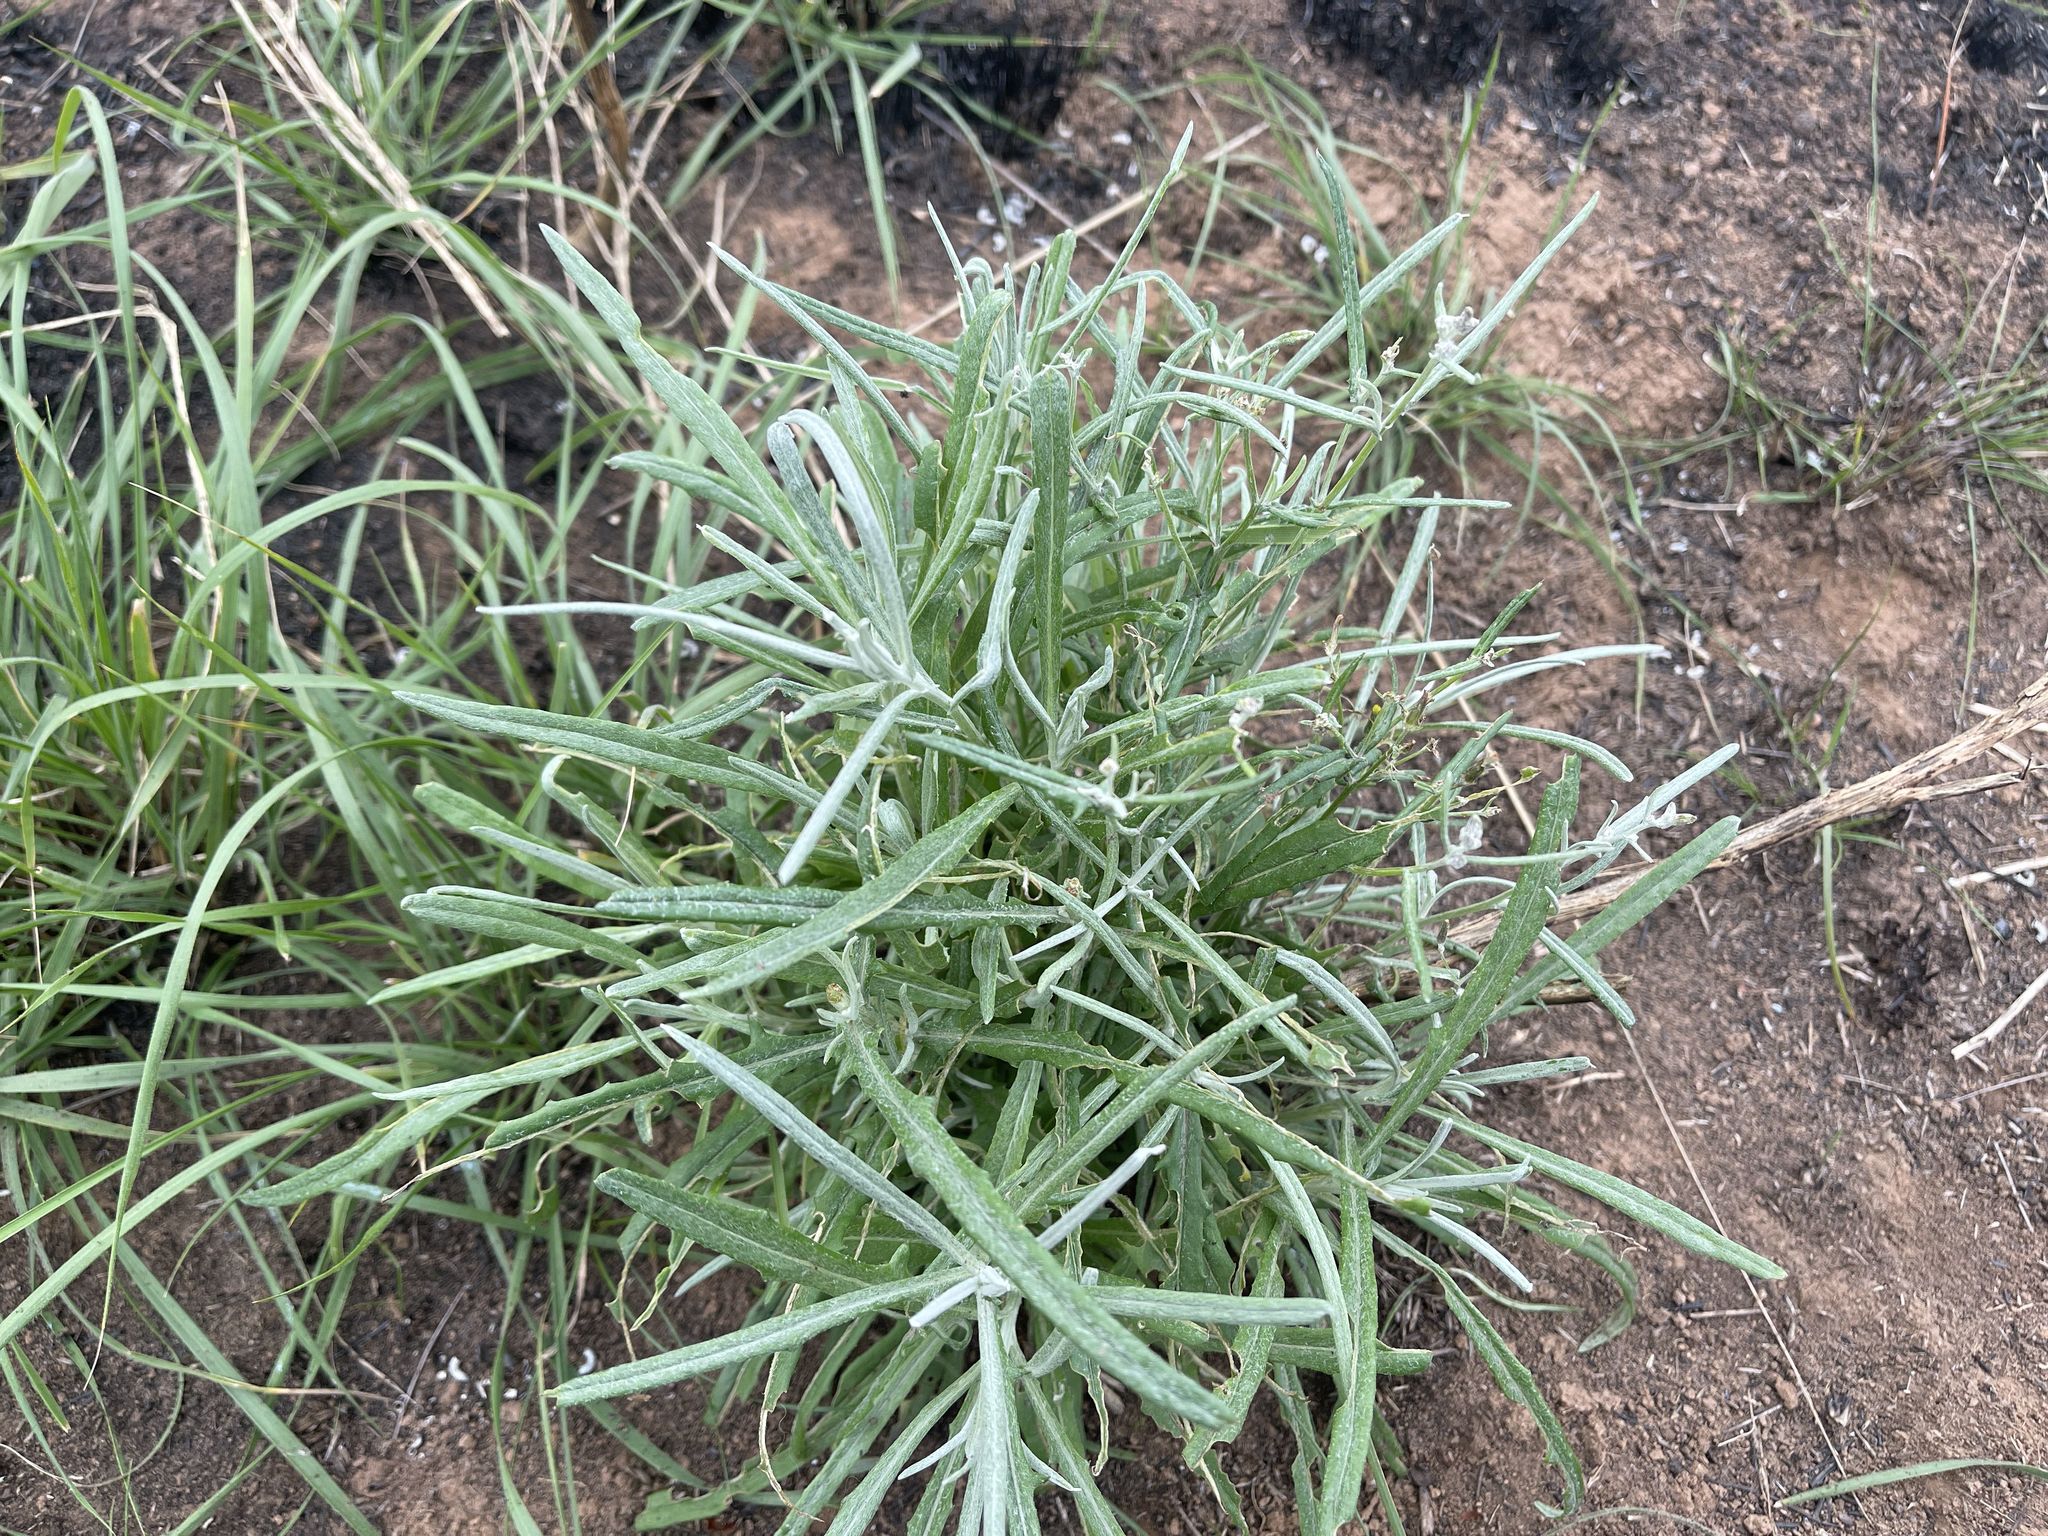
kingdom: Plantae
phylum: Tracheophyta
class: Magnoliopsida
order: Asterales
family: Asteraceae
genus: Senecio
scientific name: Senecio quadridentatus
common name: Cotton fireweed
